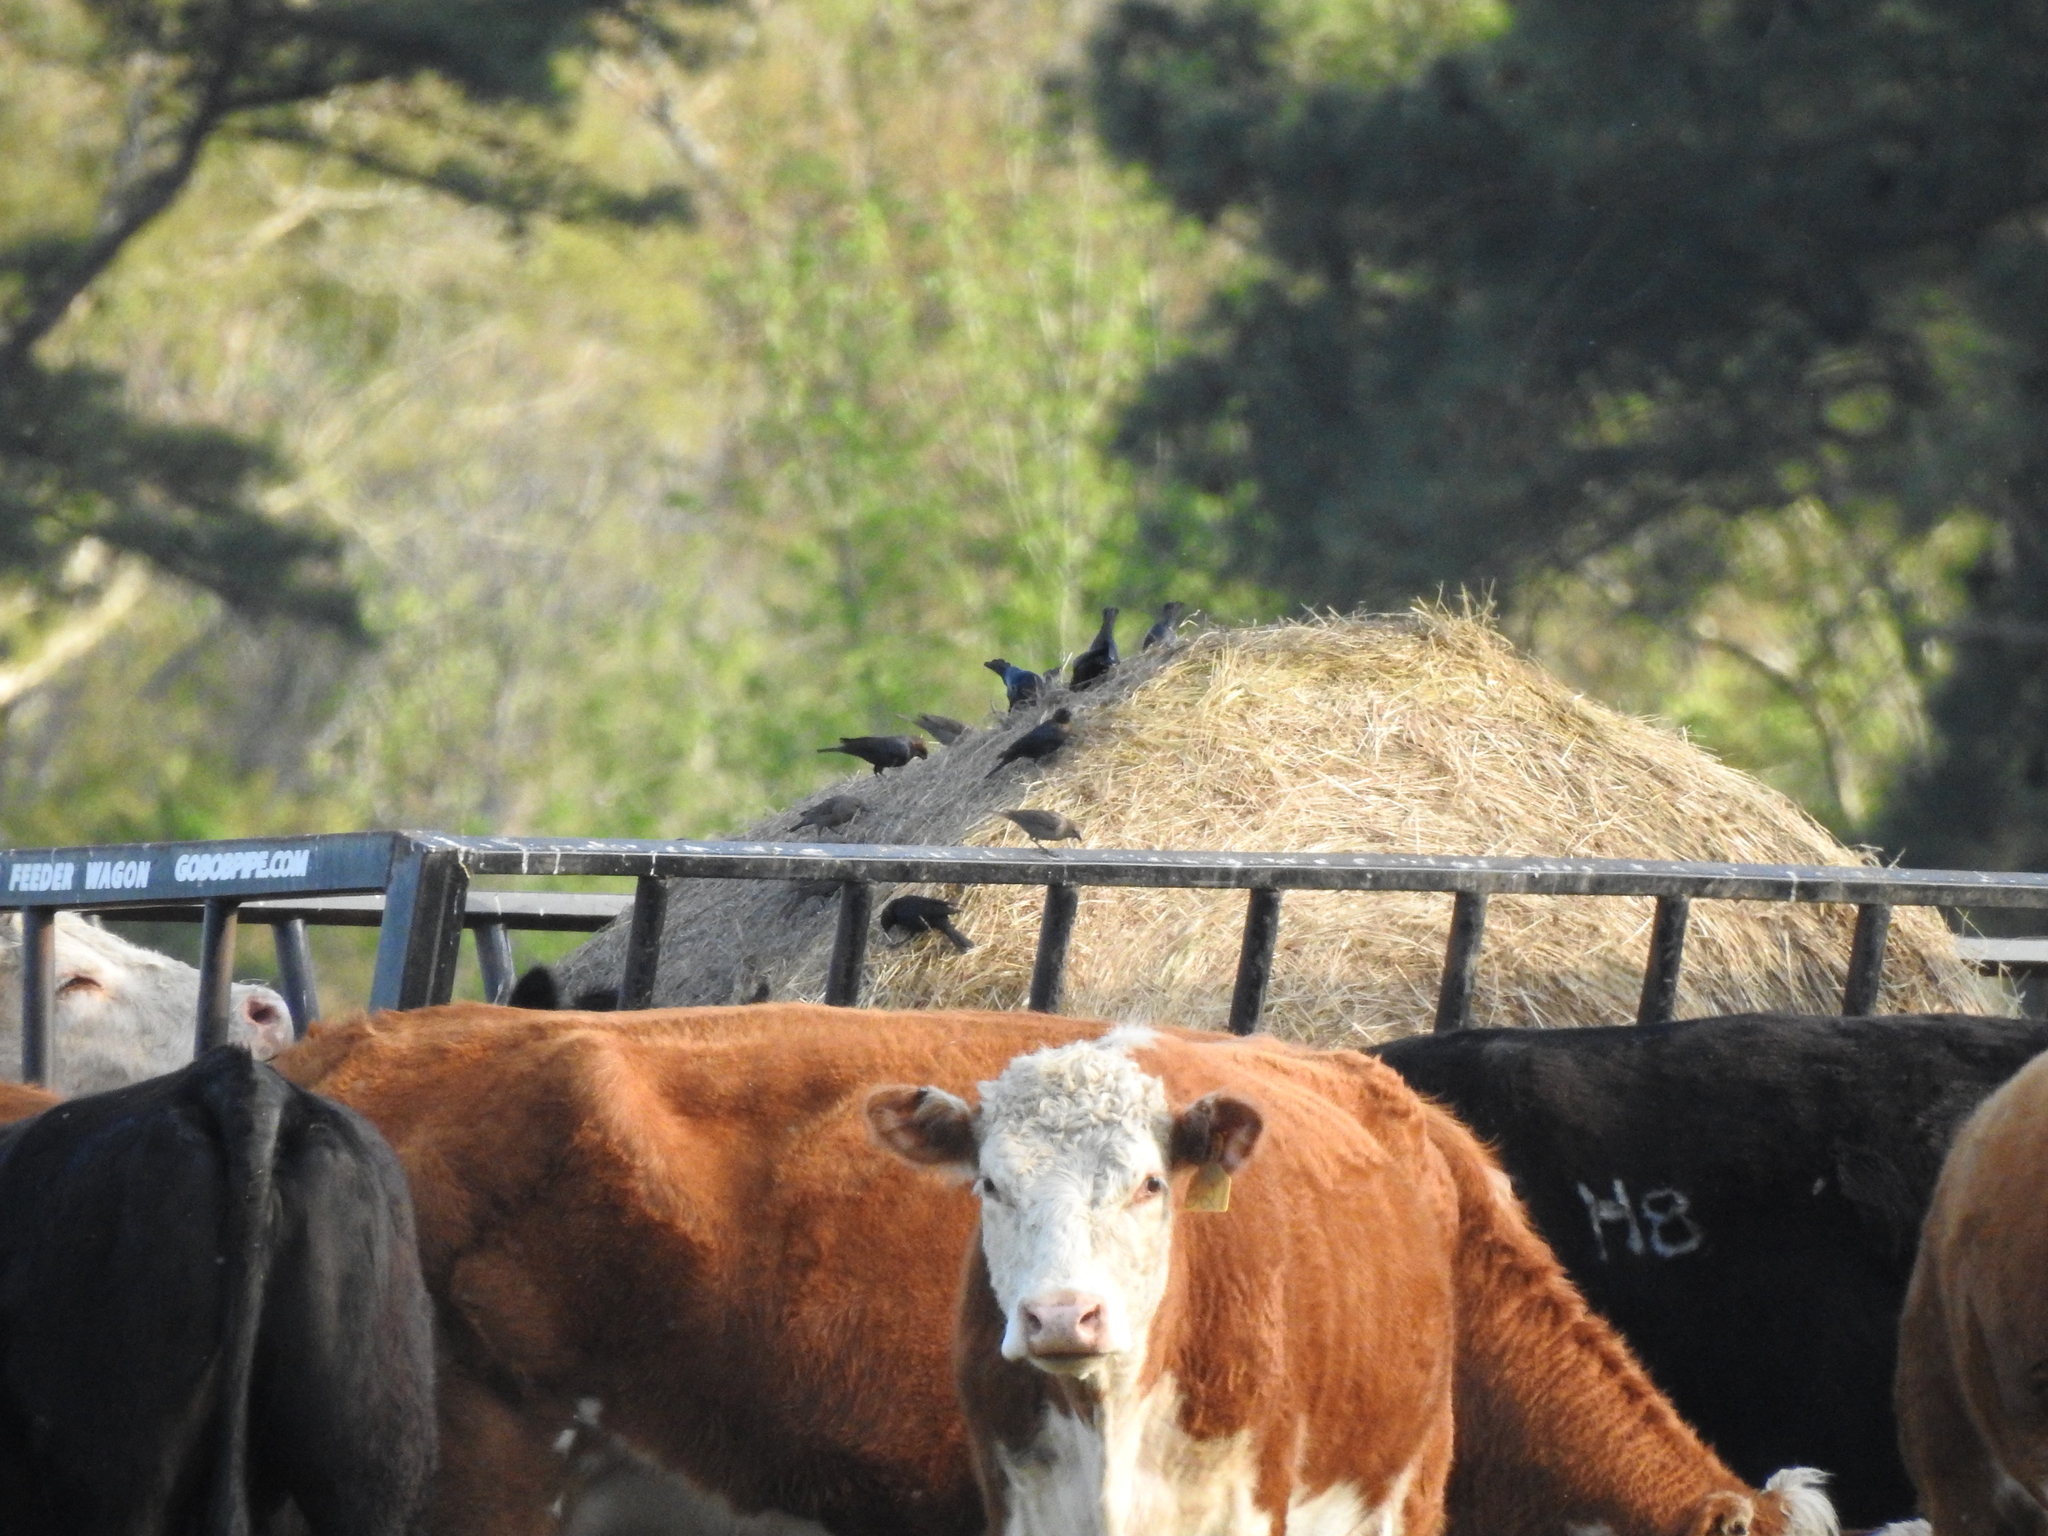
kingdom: Animalia
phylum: Chordata
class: Aves
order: Passeriformes
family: Icteridae
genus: Molothrus
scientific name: Molothrus ater
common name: Brown-headed cowbird
